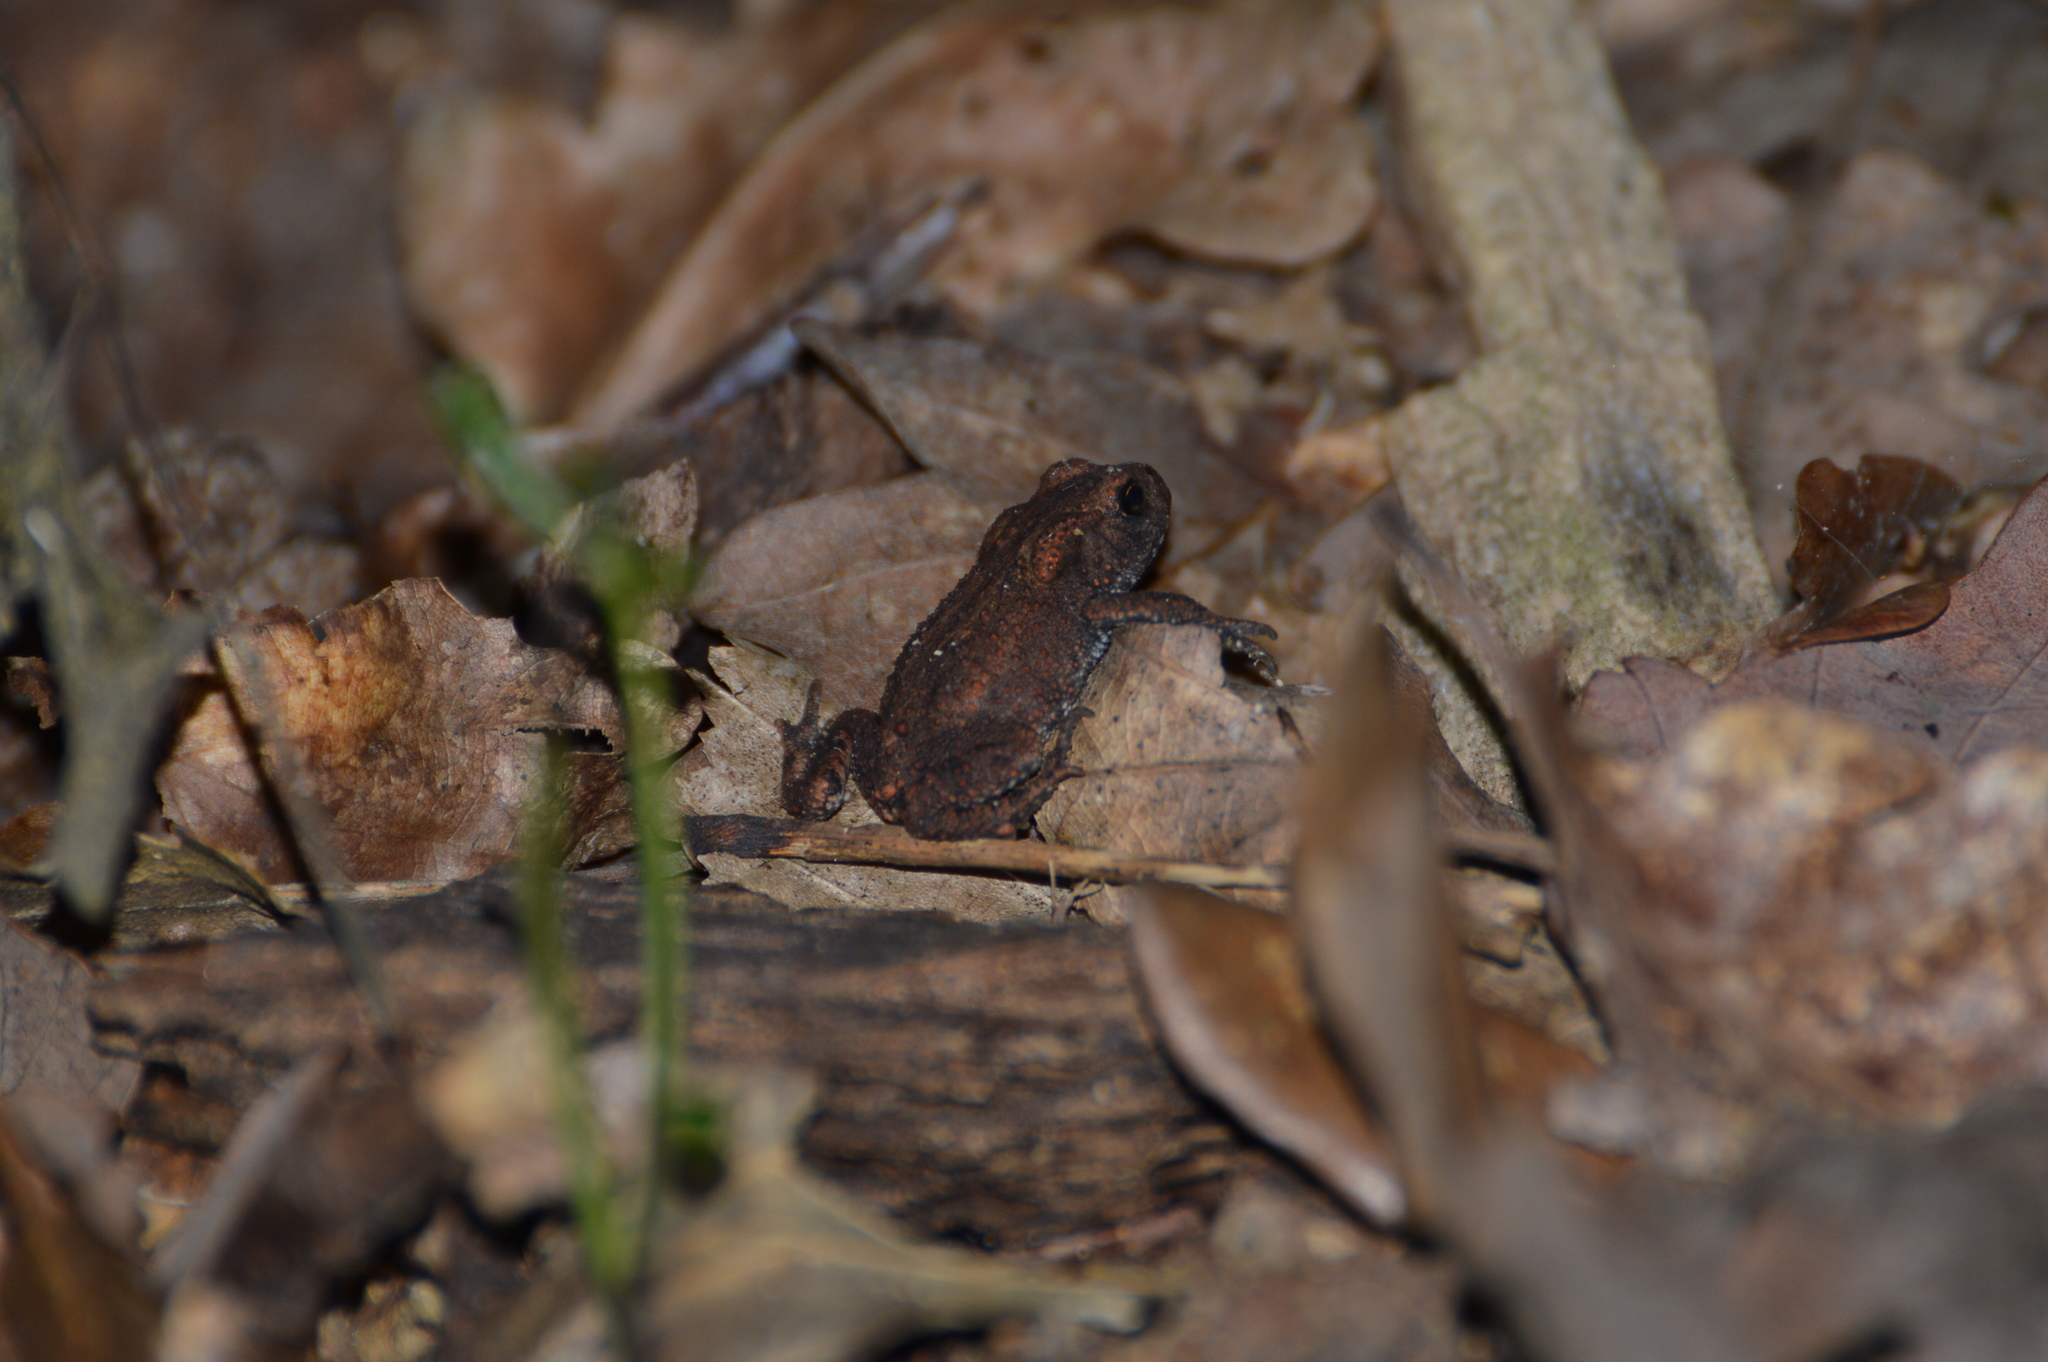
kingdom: Animalia
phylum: Chordata
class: Amphibia
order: Anura
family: Bufonidae
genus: Bufo
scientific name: Bufo bufo
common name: Common toad
